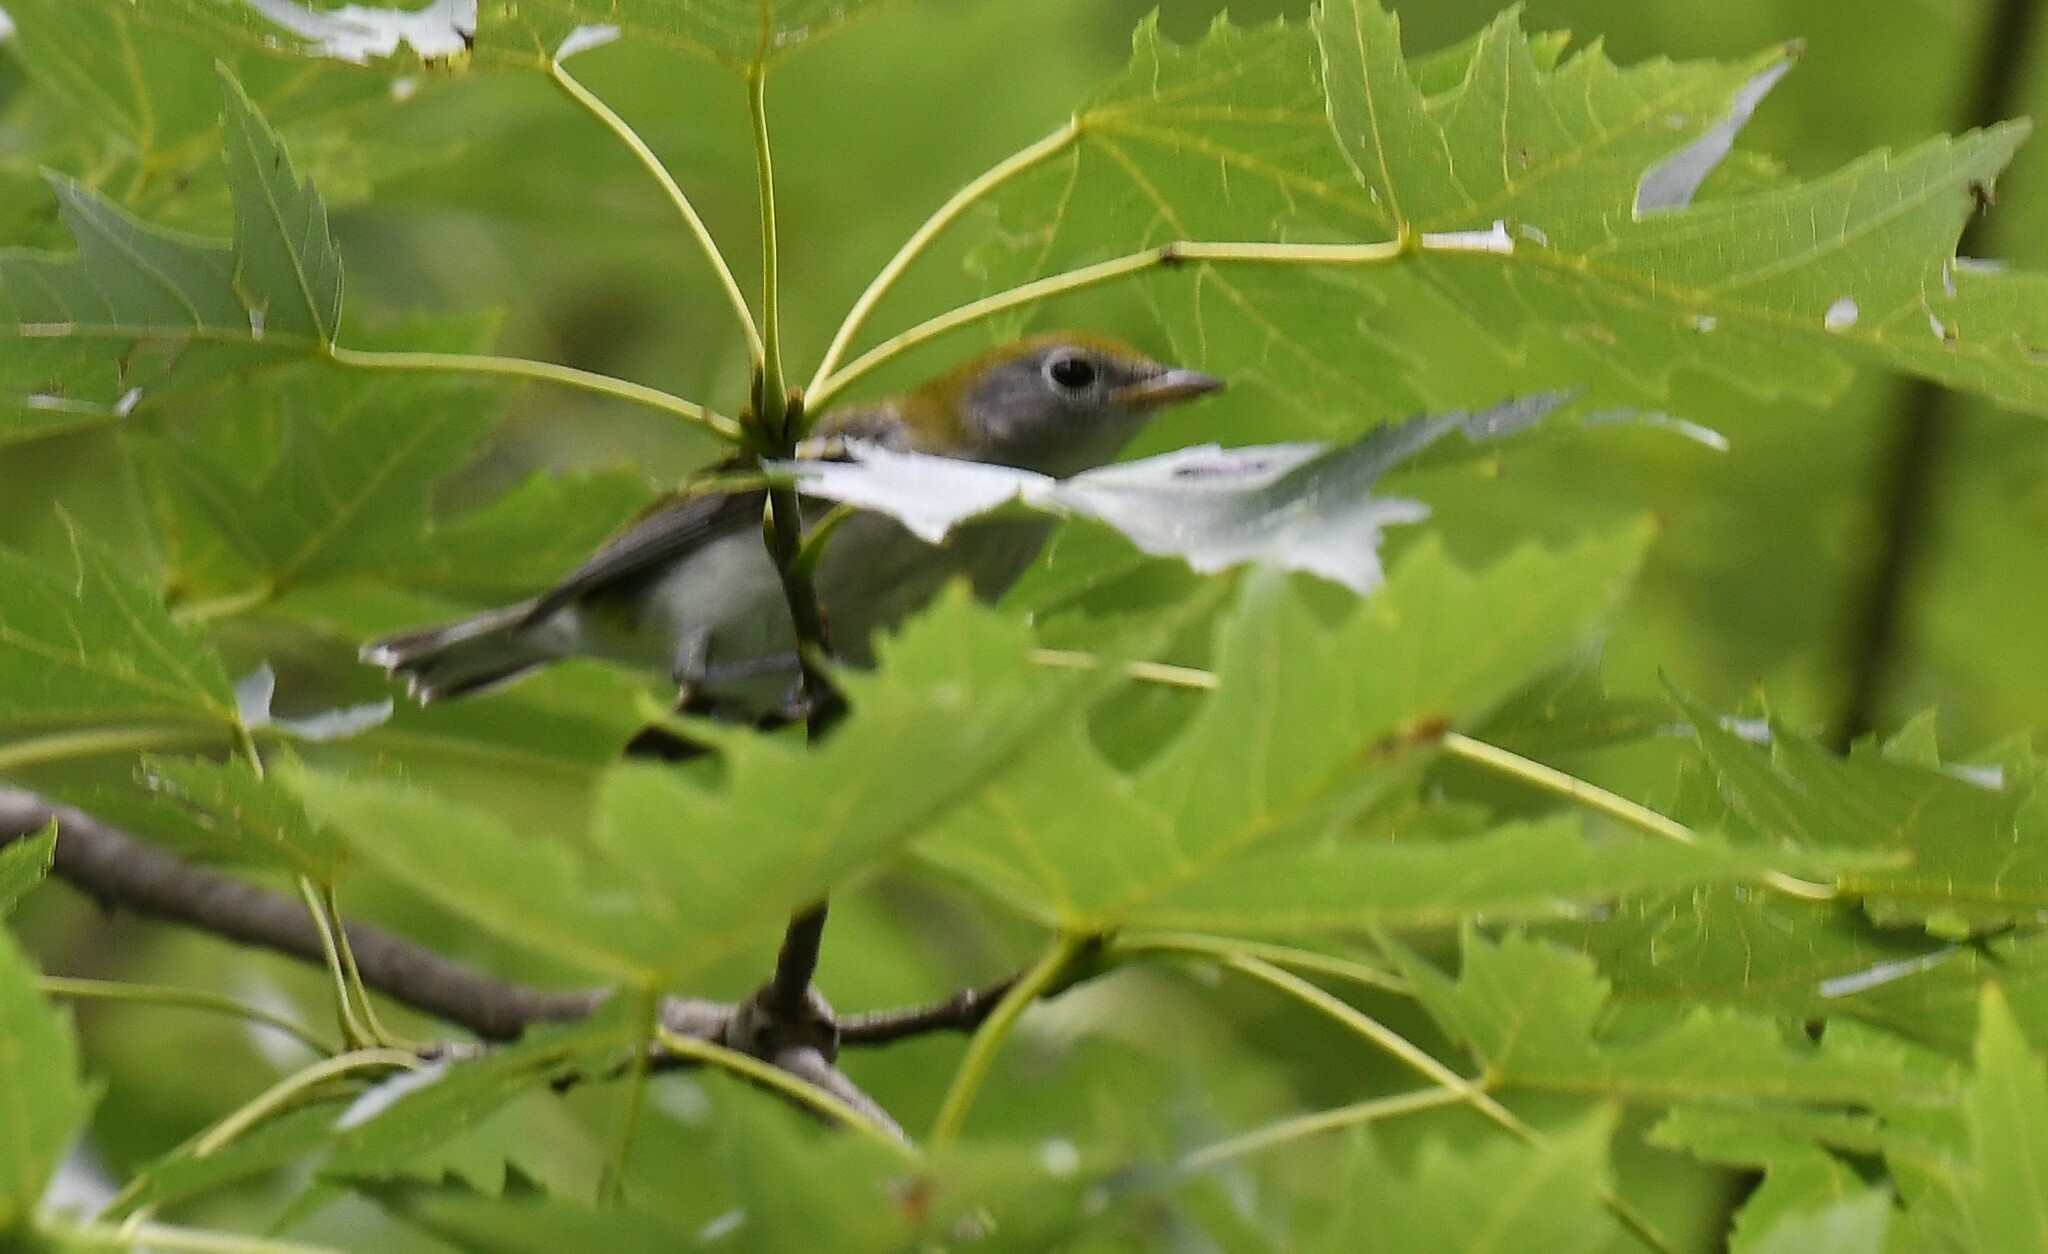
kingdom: Animalia
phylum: Chordata
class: Aves
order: Passeriformes
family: Parulidae
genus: Setophaga
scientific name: Setophaga pensylvanica
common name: Chestnut-sided warbler
